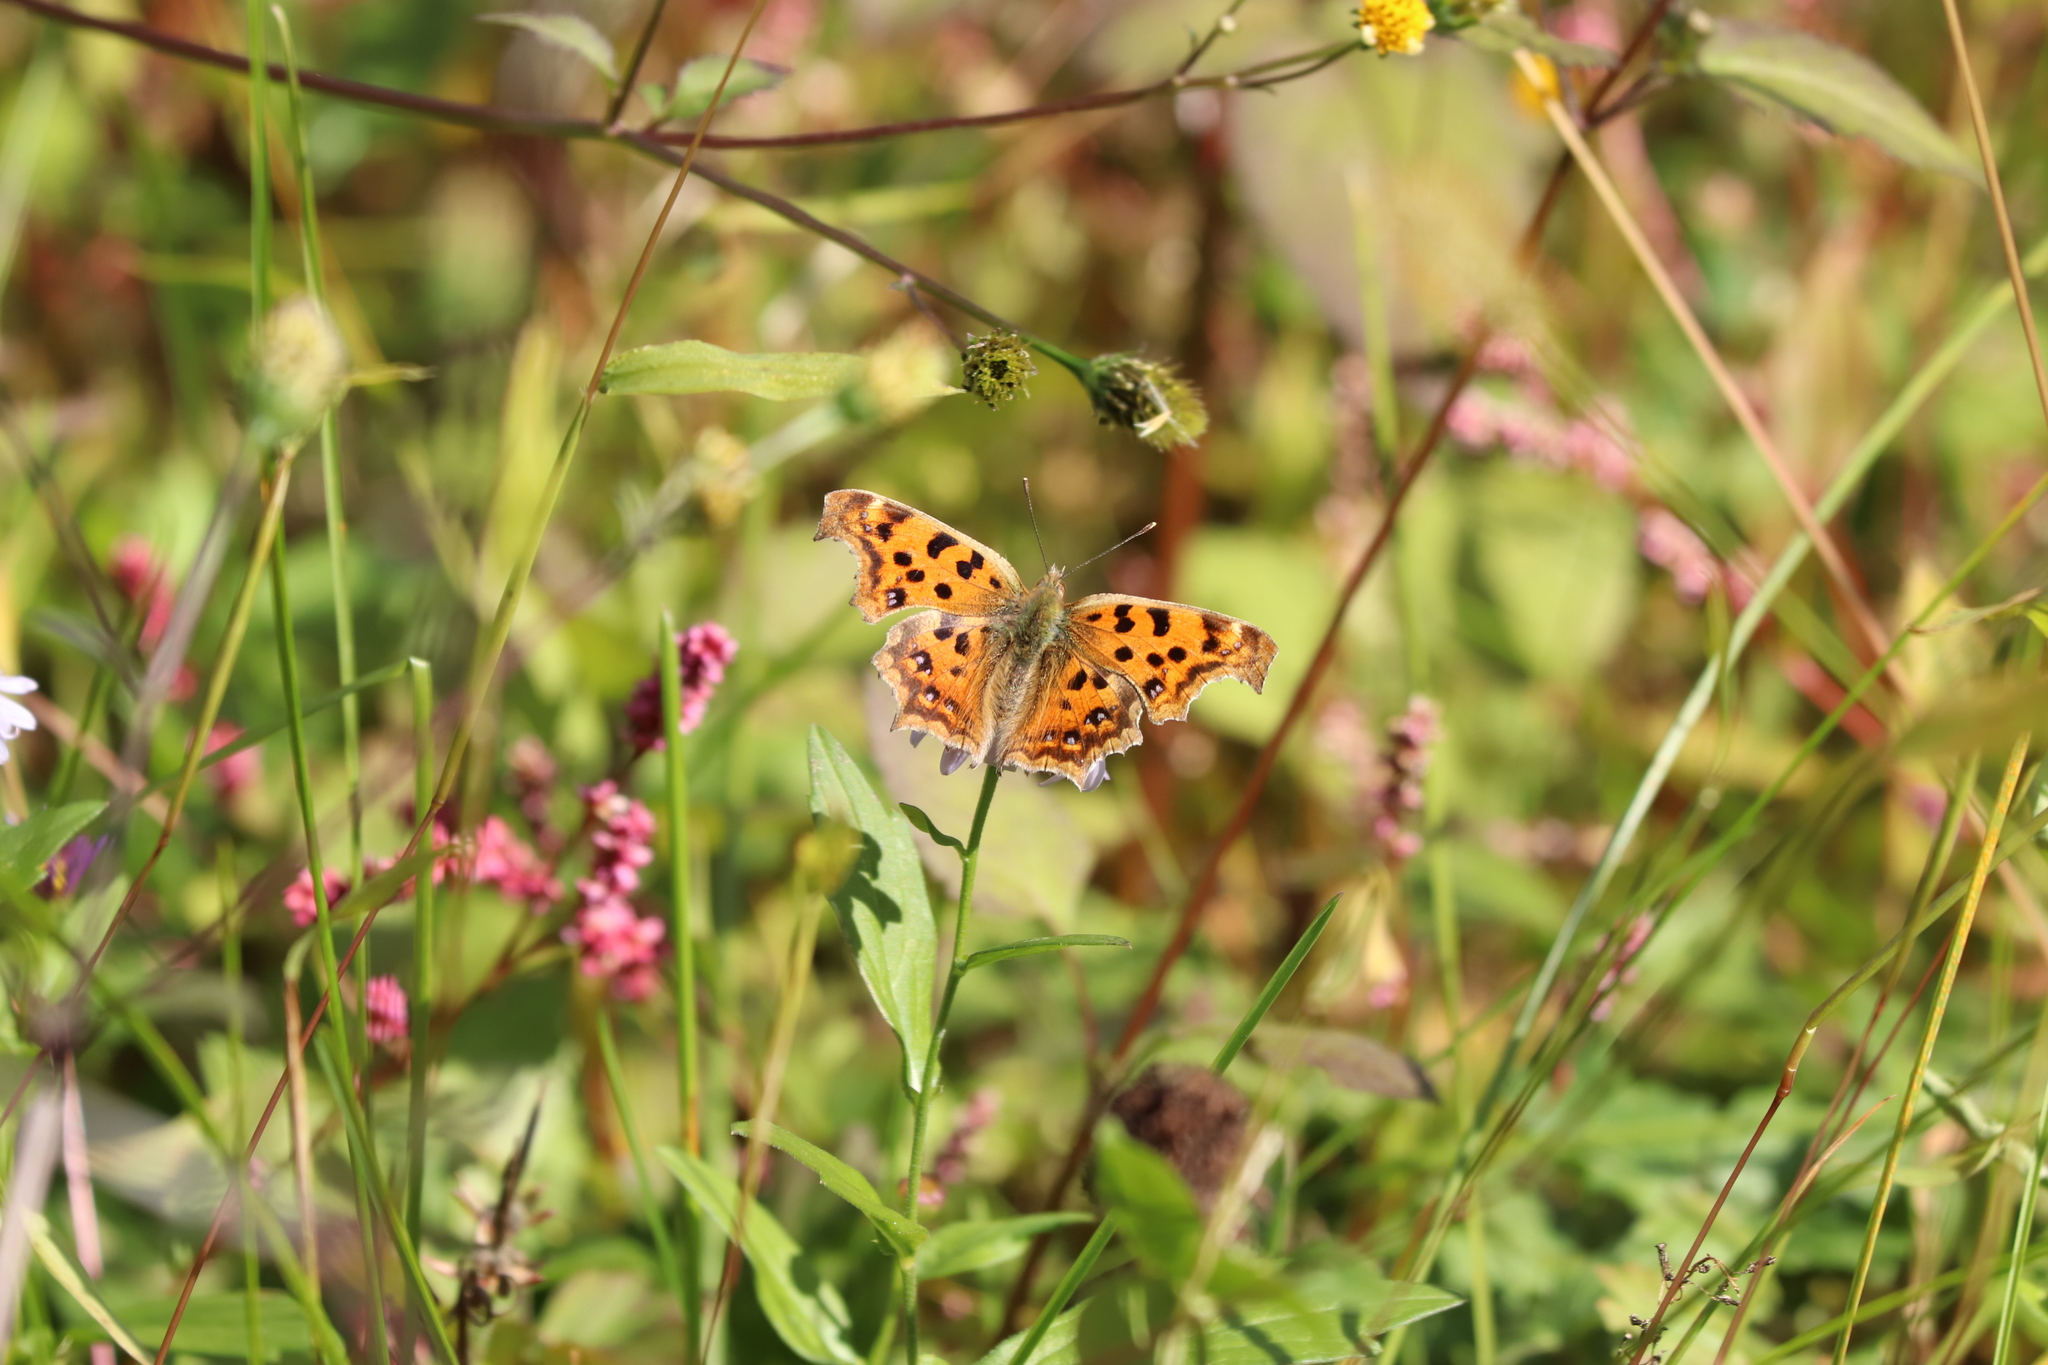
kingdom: Animalia
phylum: Arthropoda
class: Insecta
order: Lepidoptera
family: Nymphalidae
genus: Polygonia
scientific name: Polygonia c-aureum
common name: Asian comma
